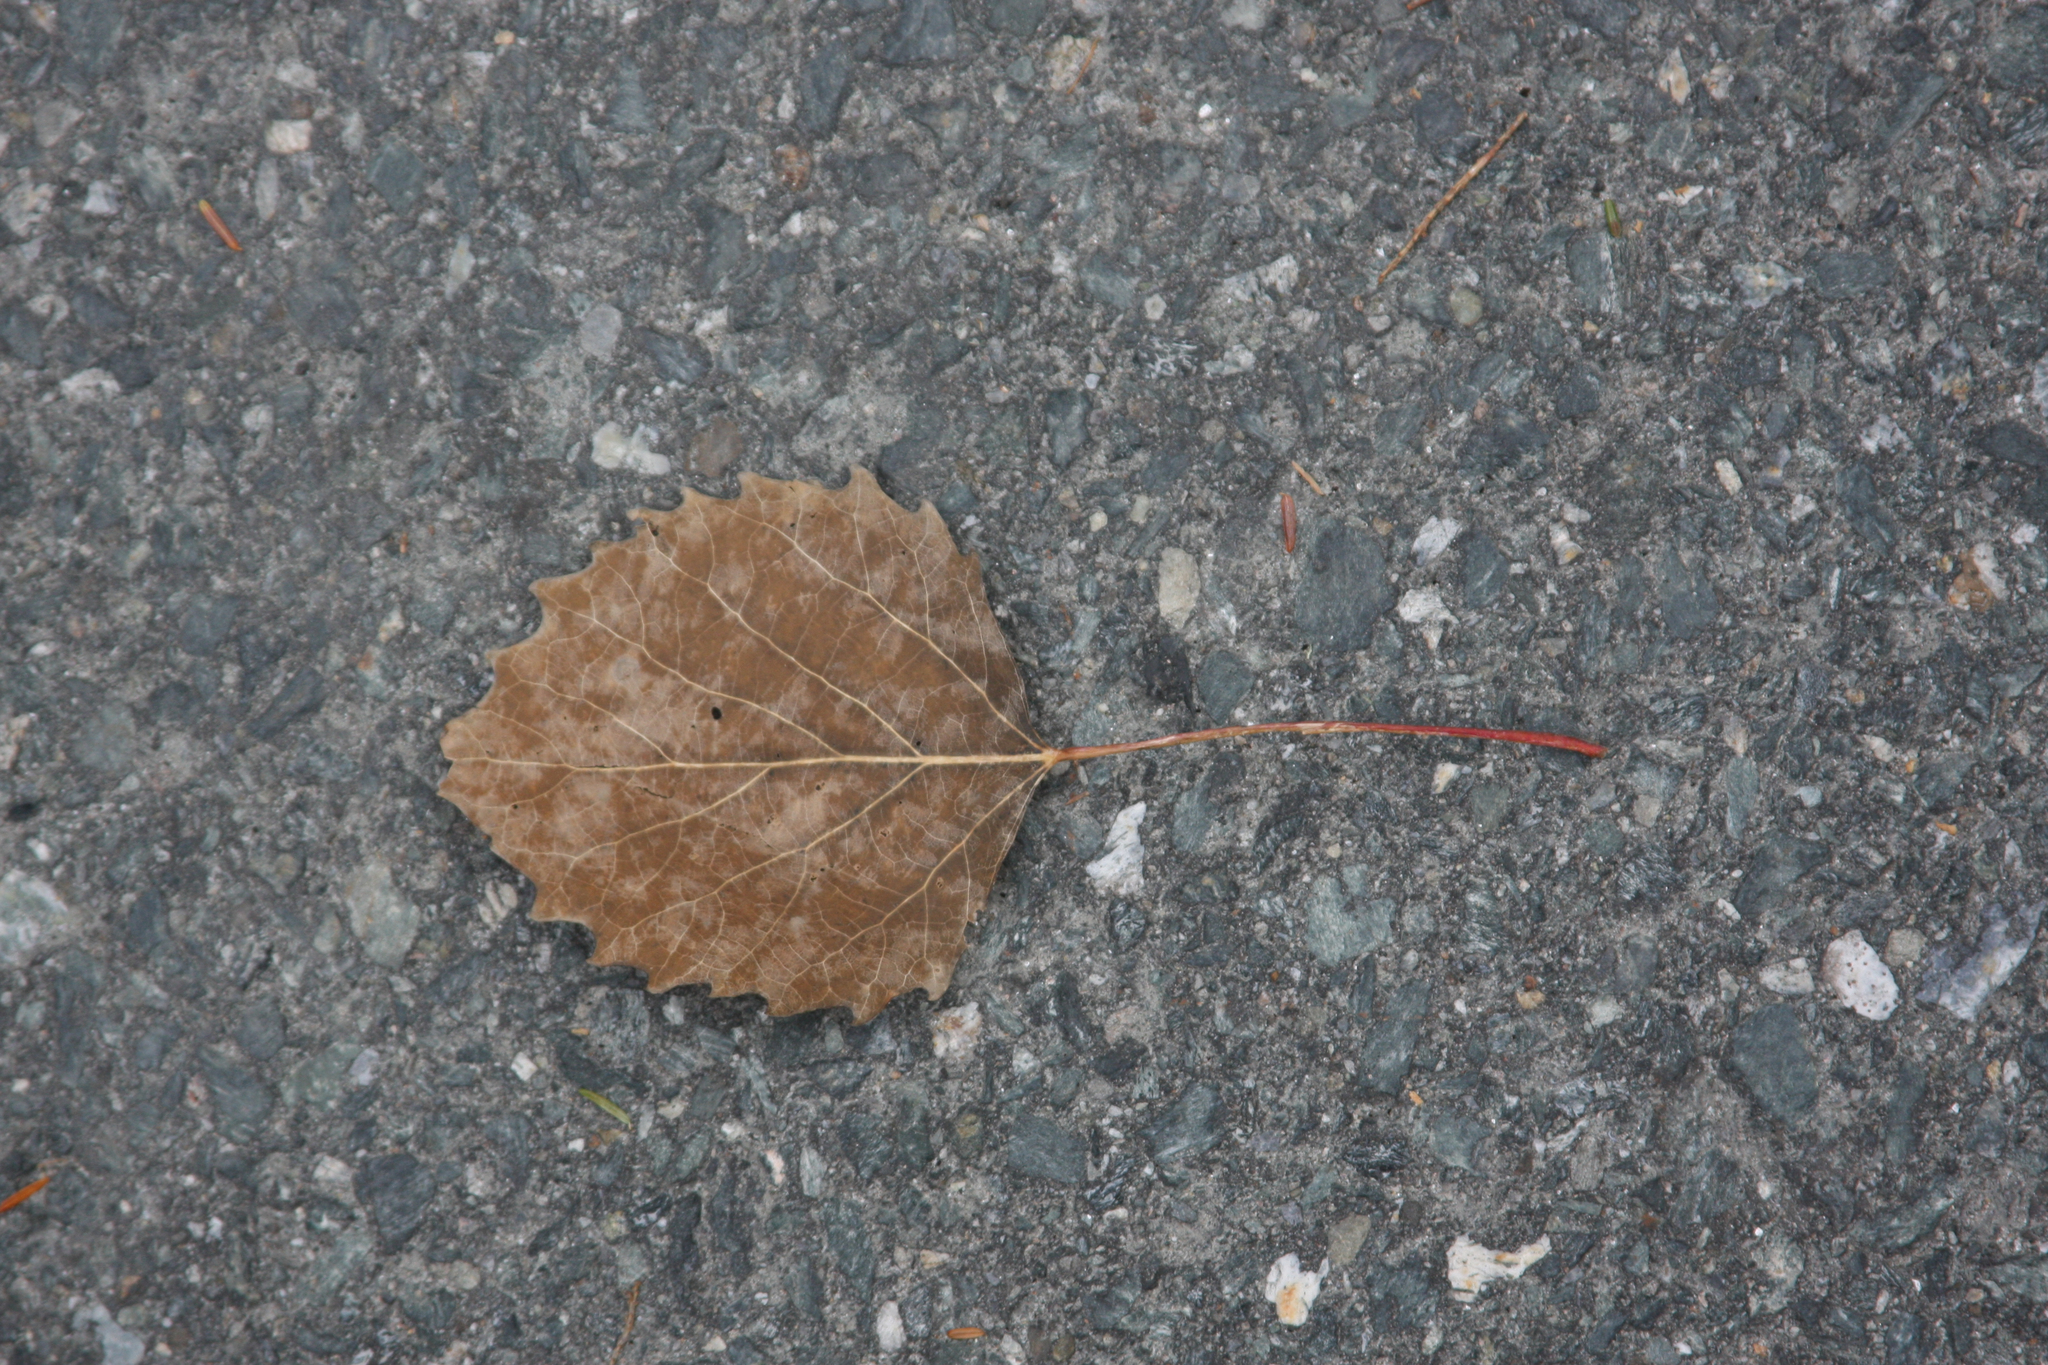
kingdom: Plantae
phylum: Tracheophyta
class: Magnoliopsida
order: Malpighiales
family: Salicaceae
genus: Populus
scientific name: Populus grandidentata
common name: Bigtooth aspen
